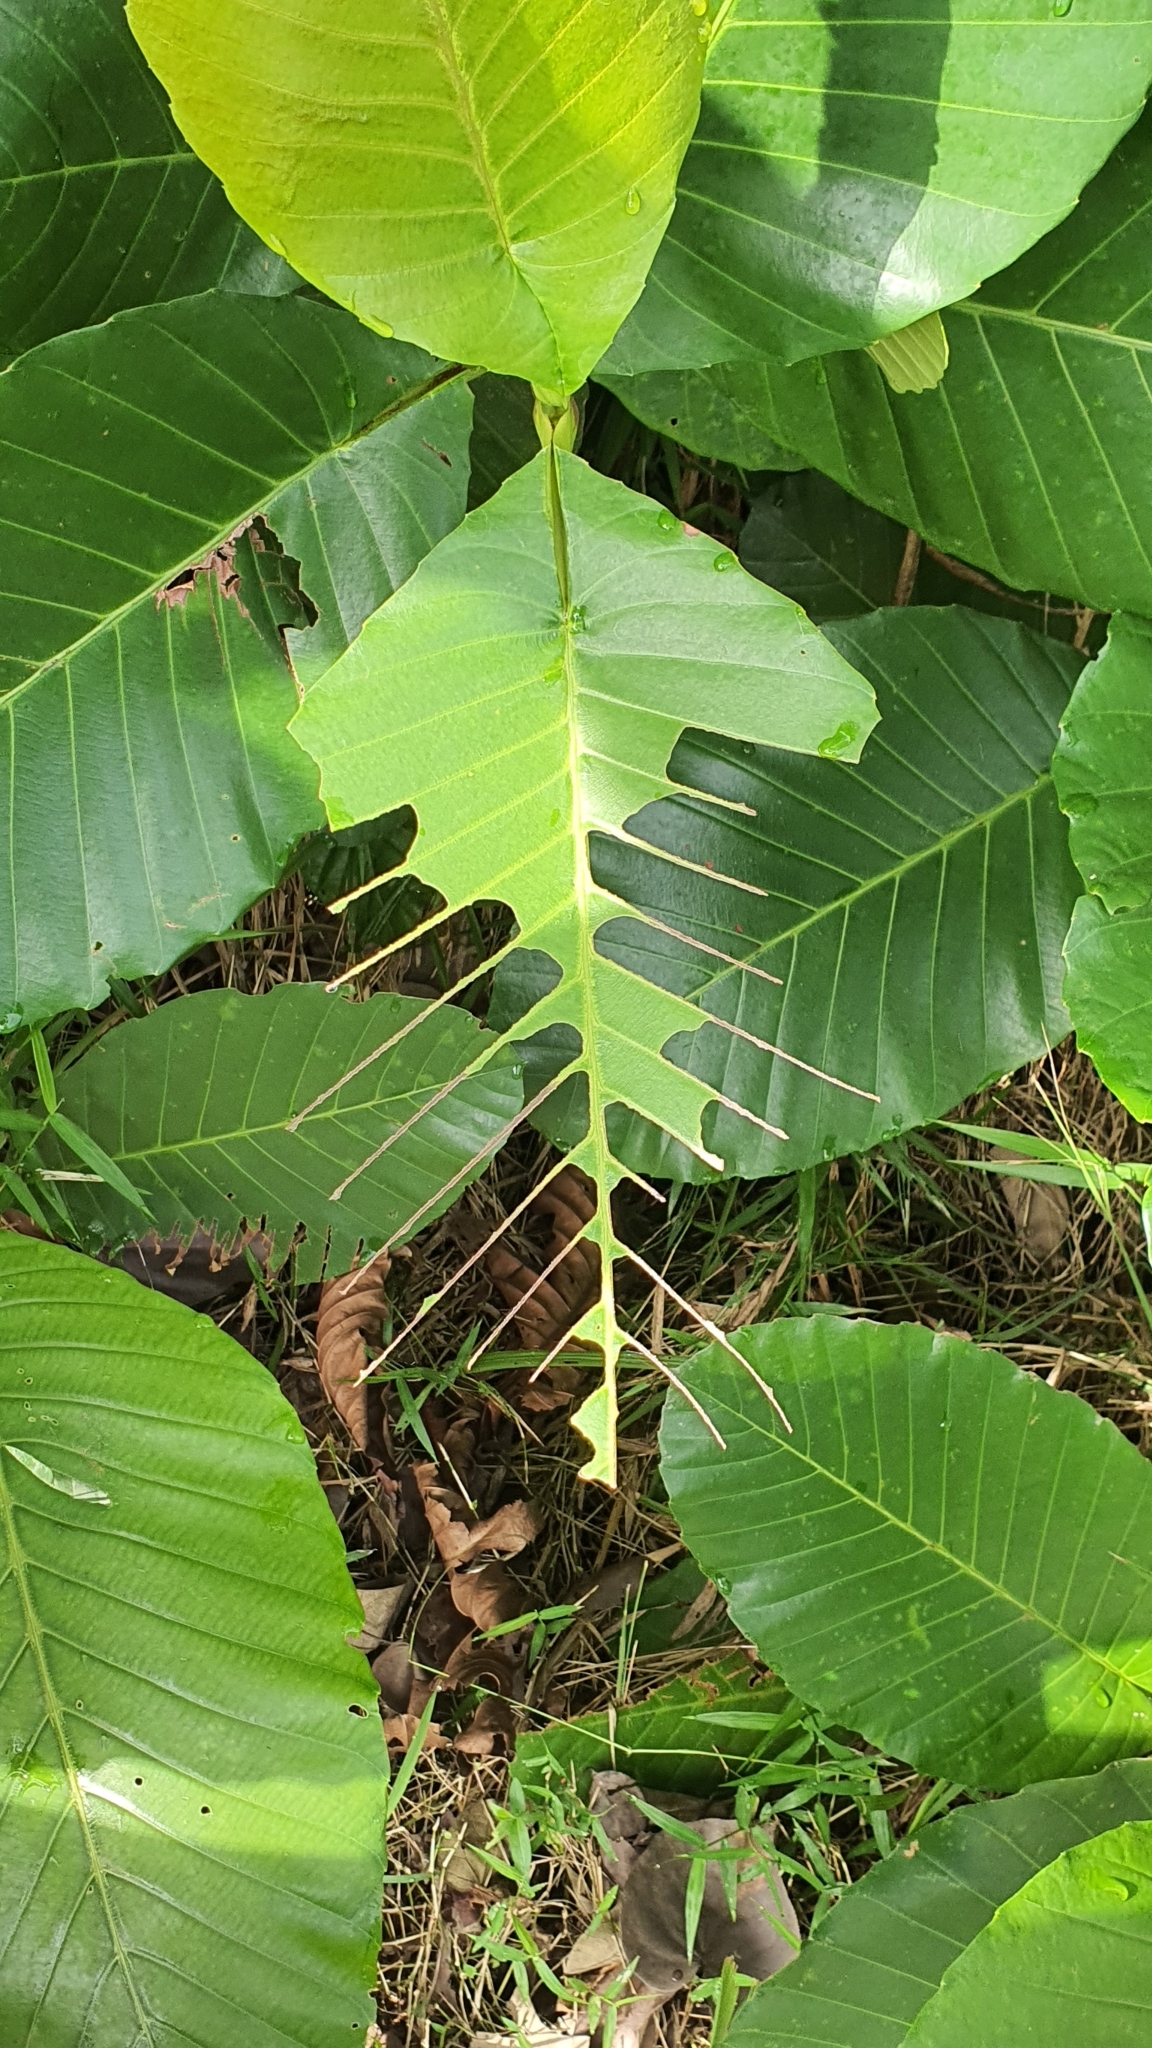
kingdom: Plantae
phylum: Tracheophyta
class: Magnoliopsida
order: Dilleniales
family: Dilleniaceae
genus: Dillenia
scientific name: Dillenia suffruticosa
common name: Shrubby dillenia
